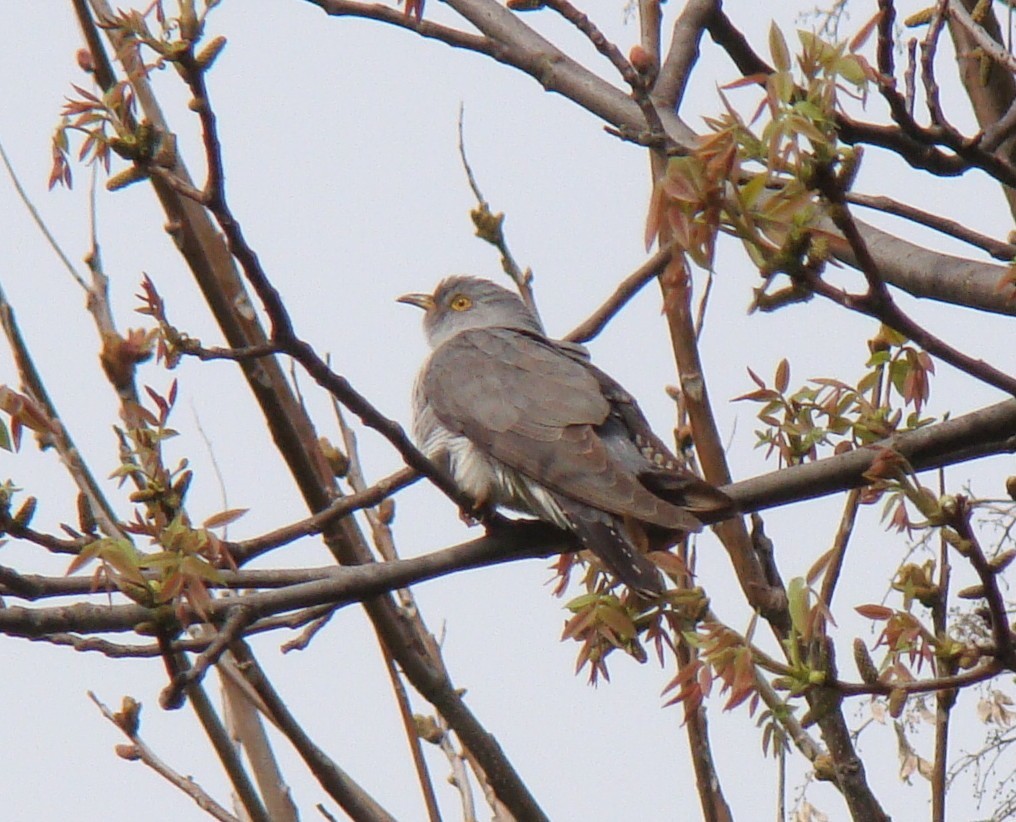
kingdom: Animalia
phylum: Chordata
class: Aves
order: Cuculiformes
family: Cuculidae
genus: Cuculus
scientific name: Cuculus canorus
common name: Common cuckoo
